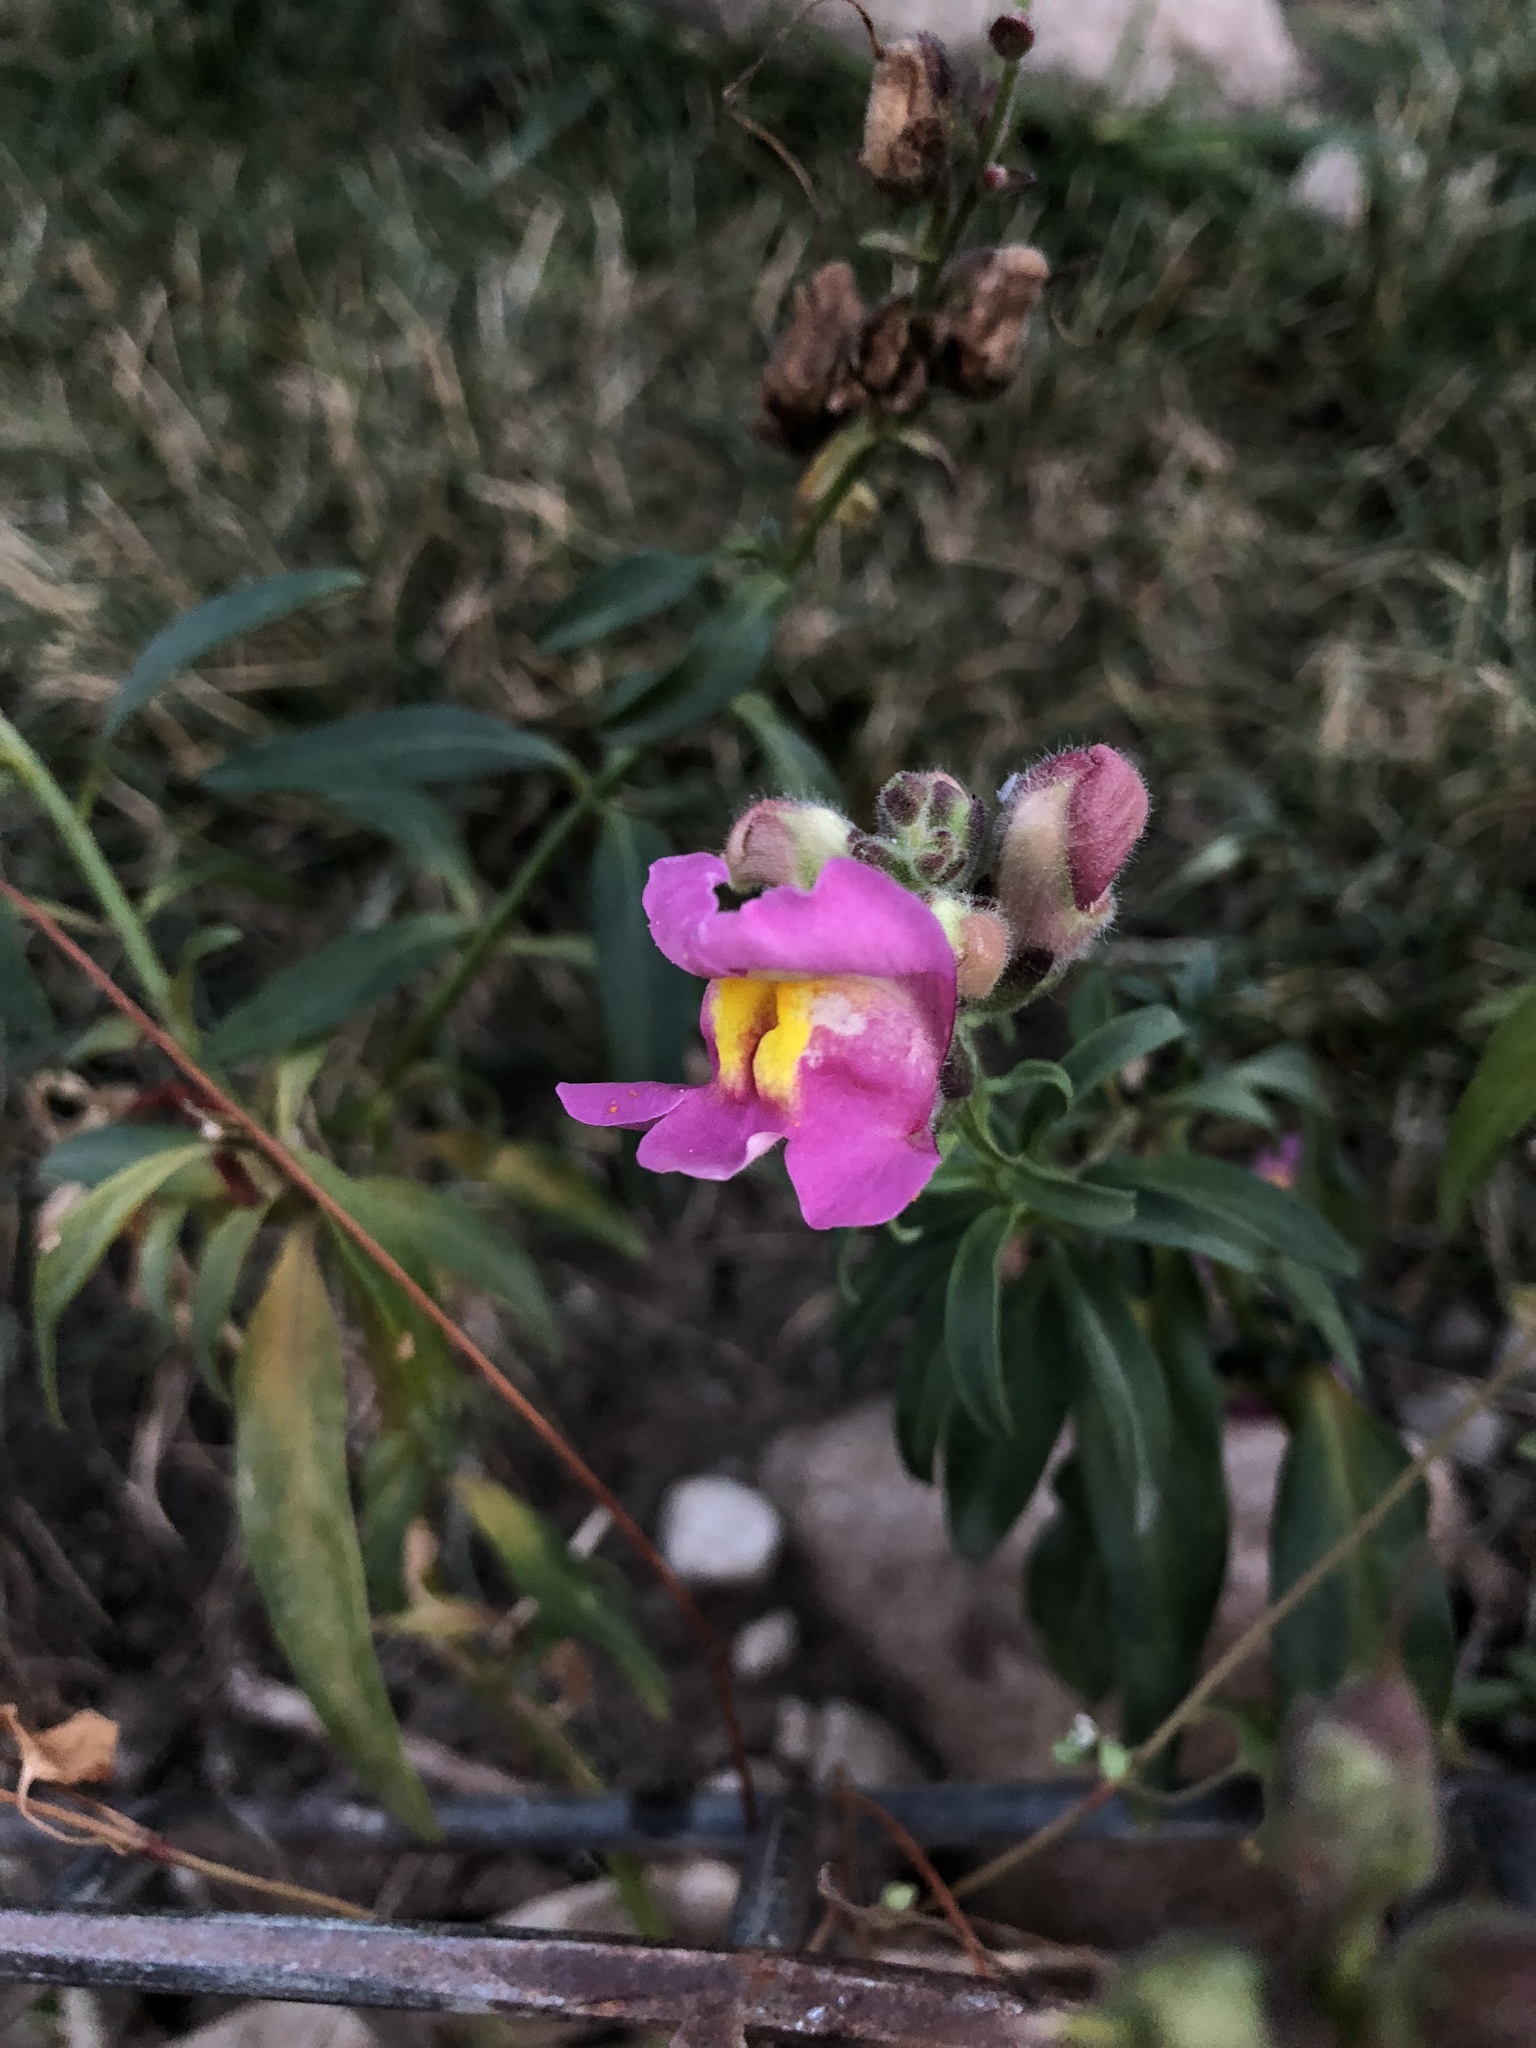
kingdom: Plantae
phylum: Tracheophyta
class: Magnoliopsida
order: Lamiales
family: Plantaginaceae
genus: Antirrhinum
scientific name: Antirrhinum majus
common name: Snapdragon
